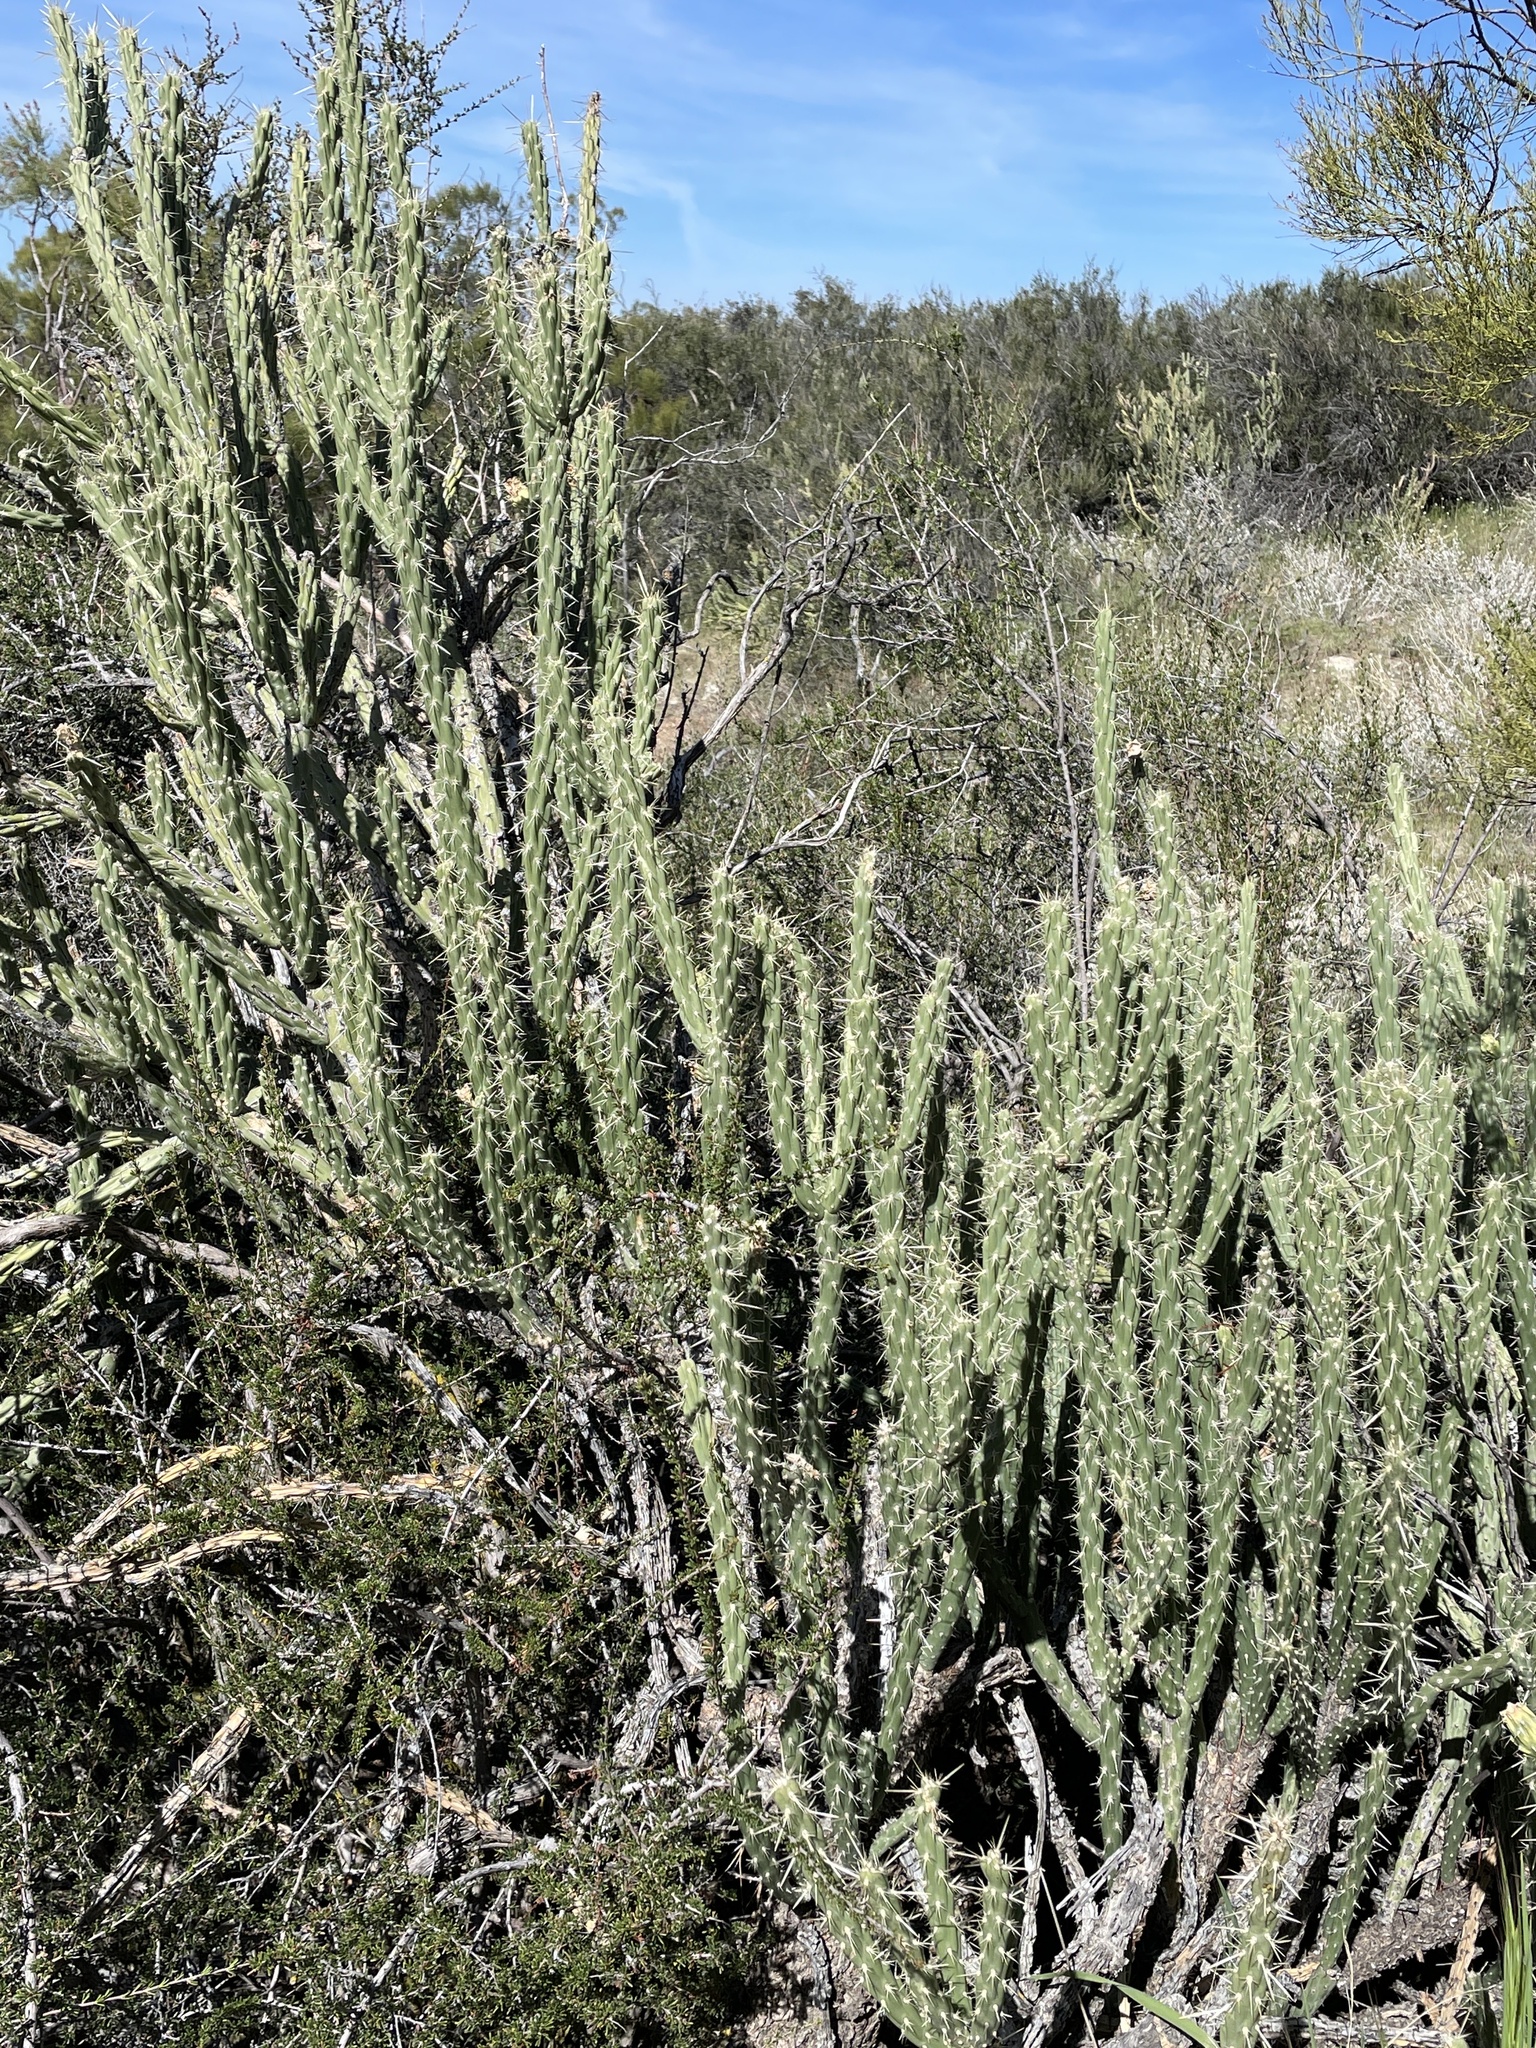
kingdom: Plantae
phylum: Tracheophyta
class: Magnoliopsida
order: Caryophyllales
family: Cactaceae
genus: Cylindropuntia
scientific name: Cylindropuntia bernardina
